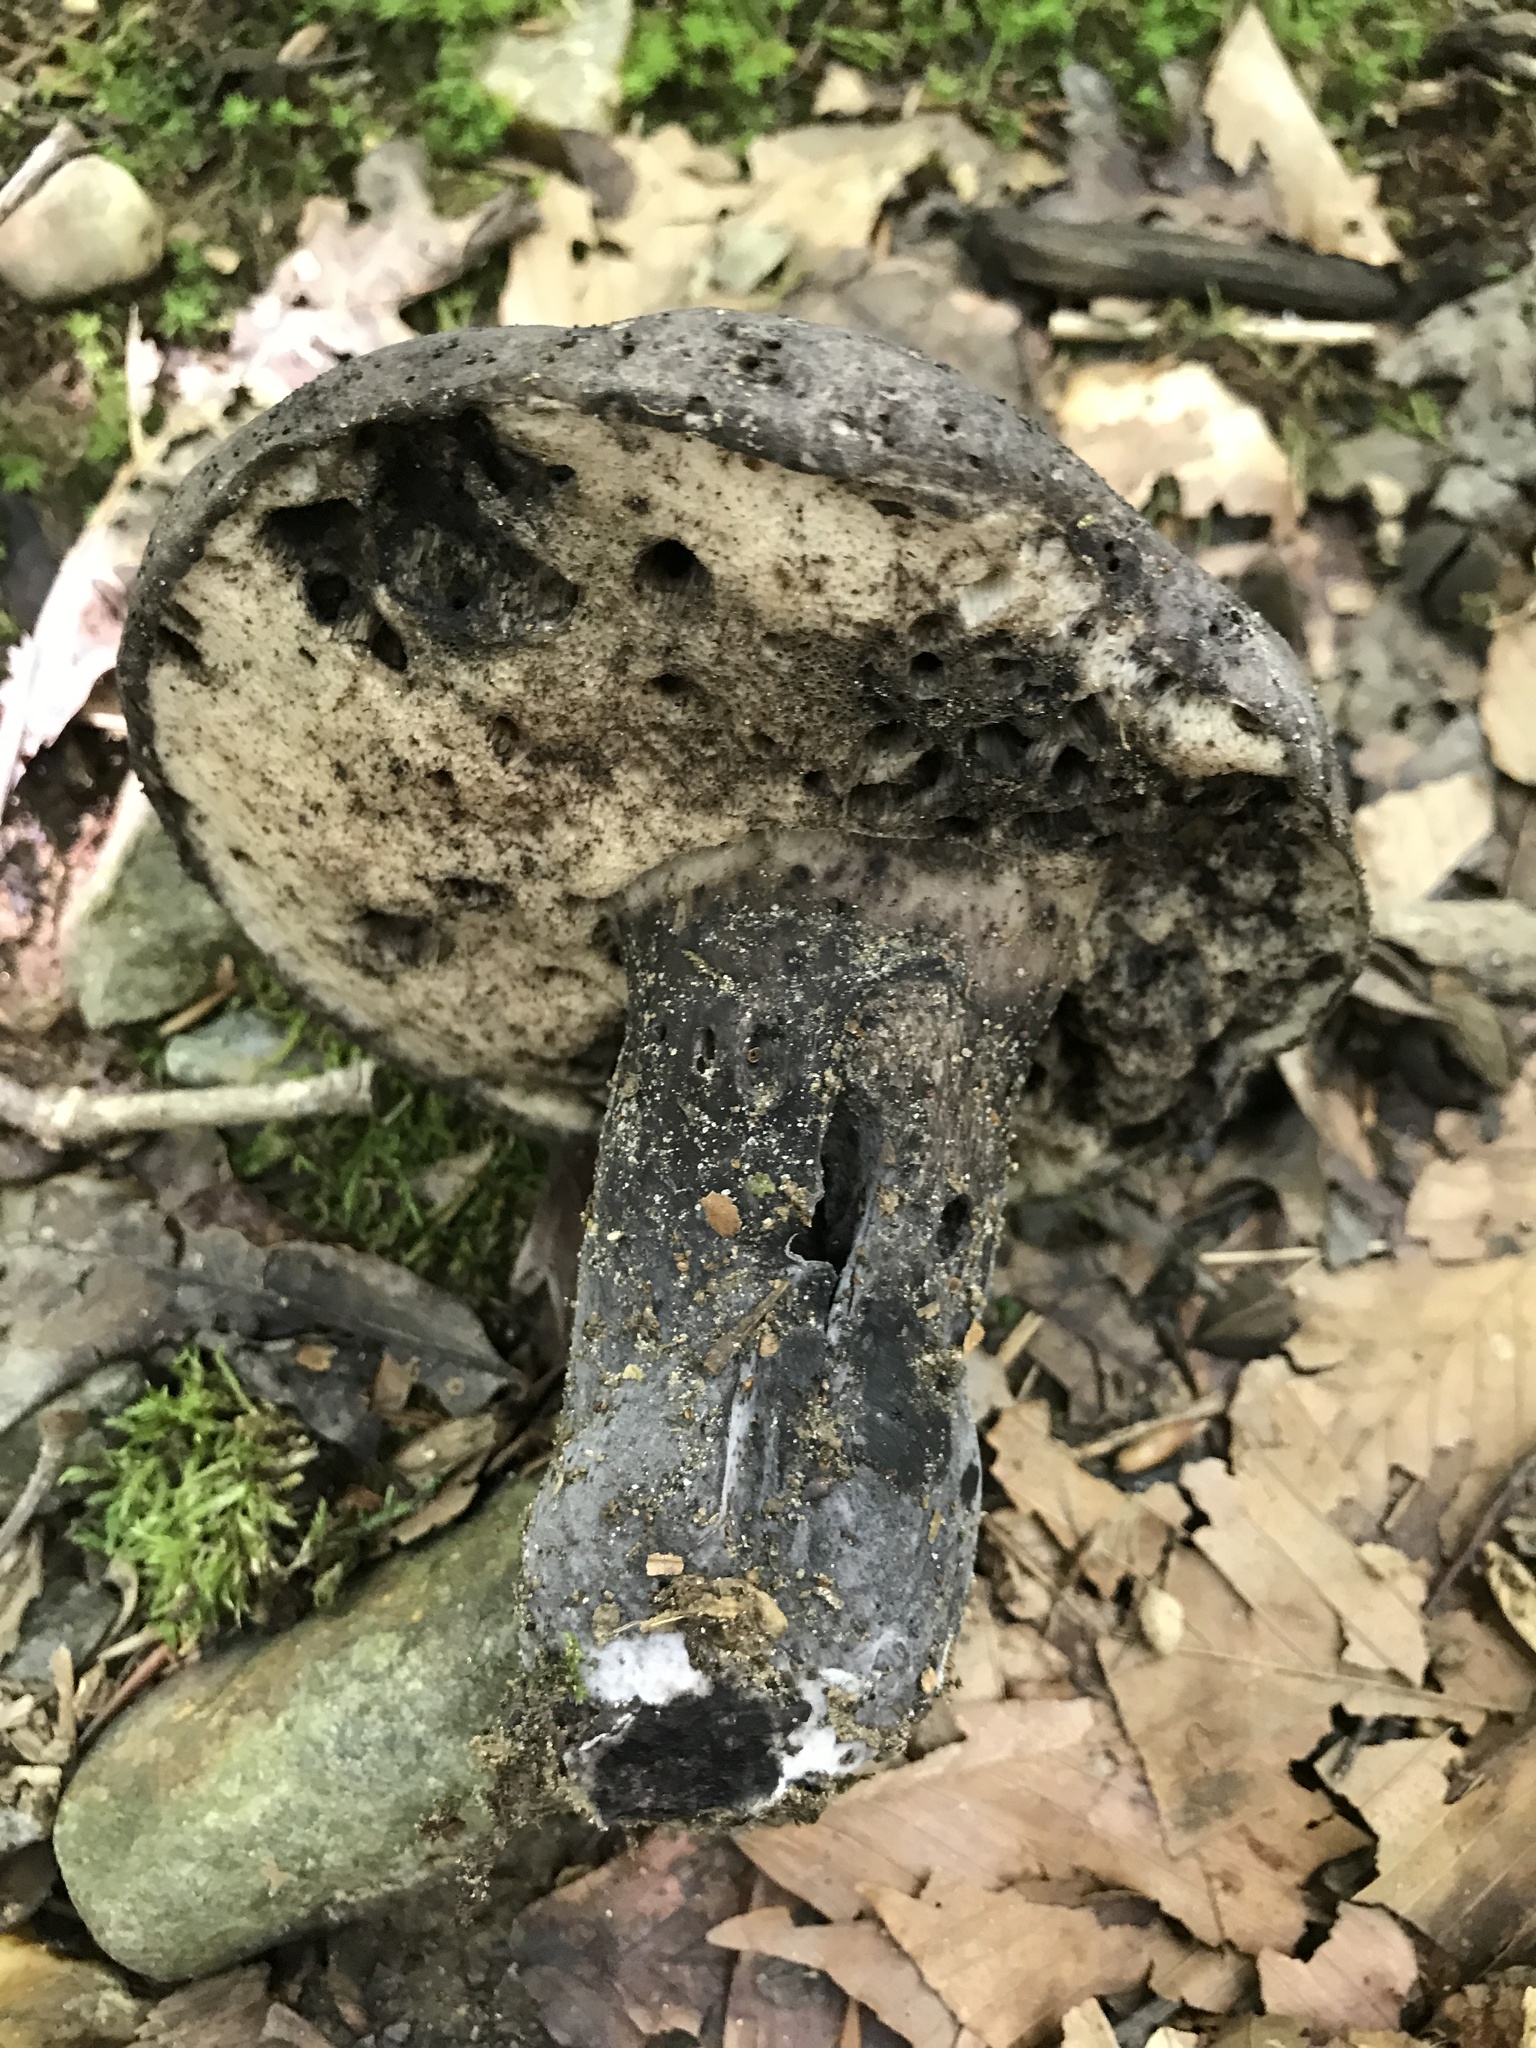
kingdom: Fungi
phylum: Basidiomycota
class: Agaricomycetes
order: Boletales
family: Boletaceae
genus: Tylopilus
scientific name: Tylopilus alboater
